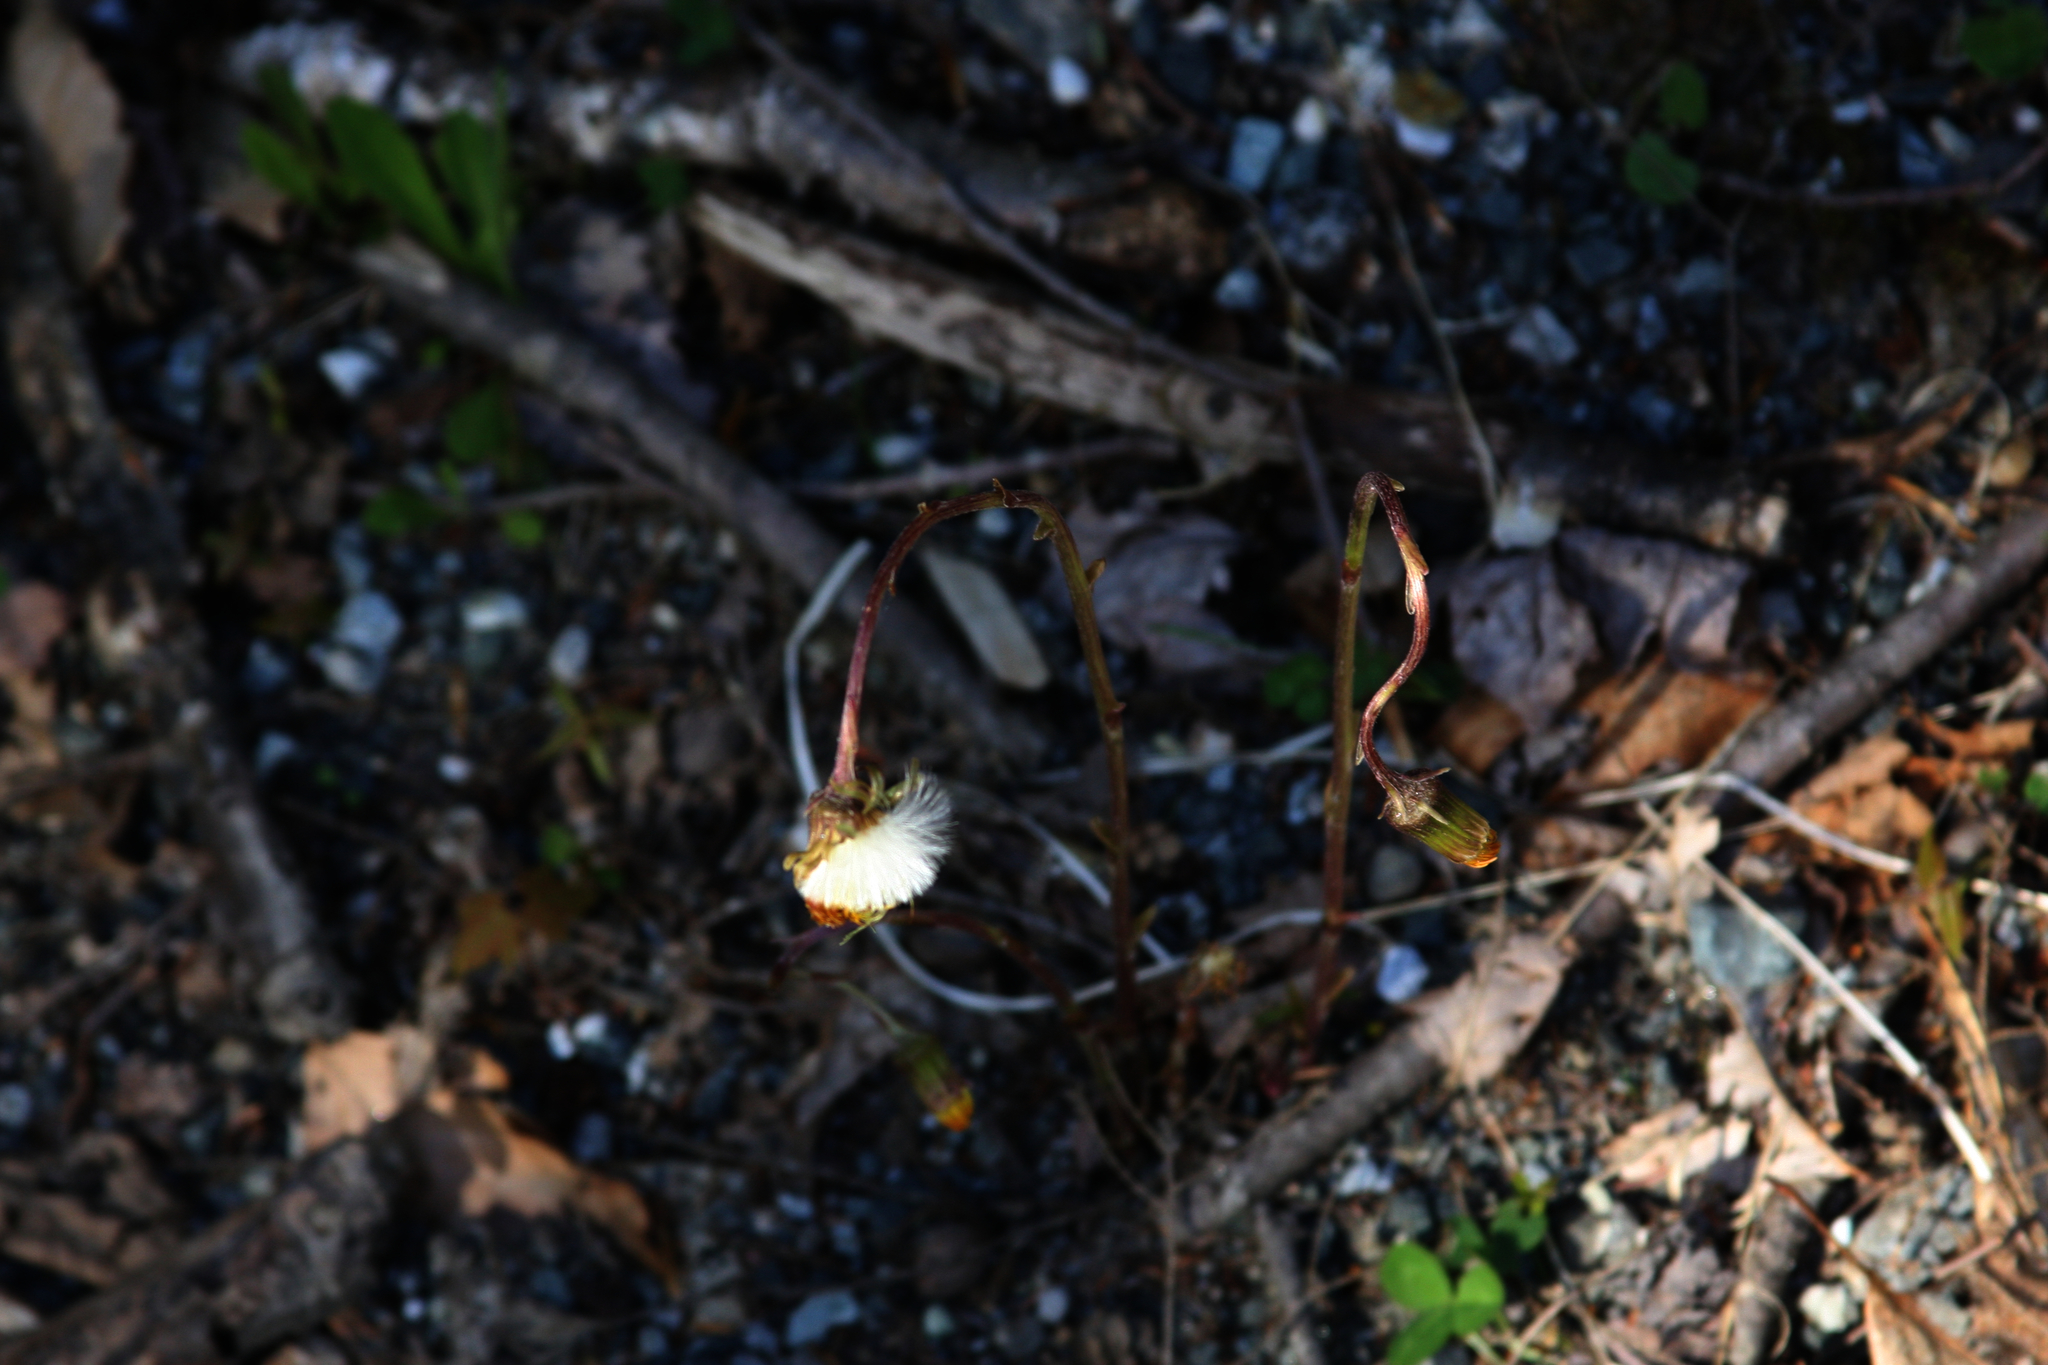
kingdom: Plantae
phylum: Tracheophyta
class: Magnoliopsida
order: Asterales
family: Asteraceae
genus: Tussilago
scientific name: Tussilago farfara
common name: Coltsfoot
